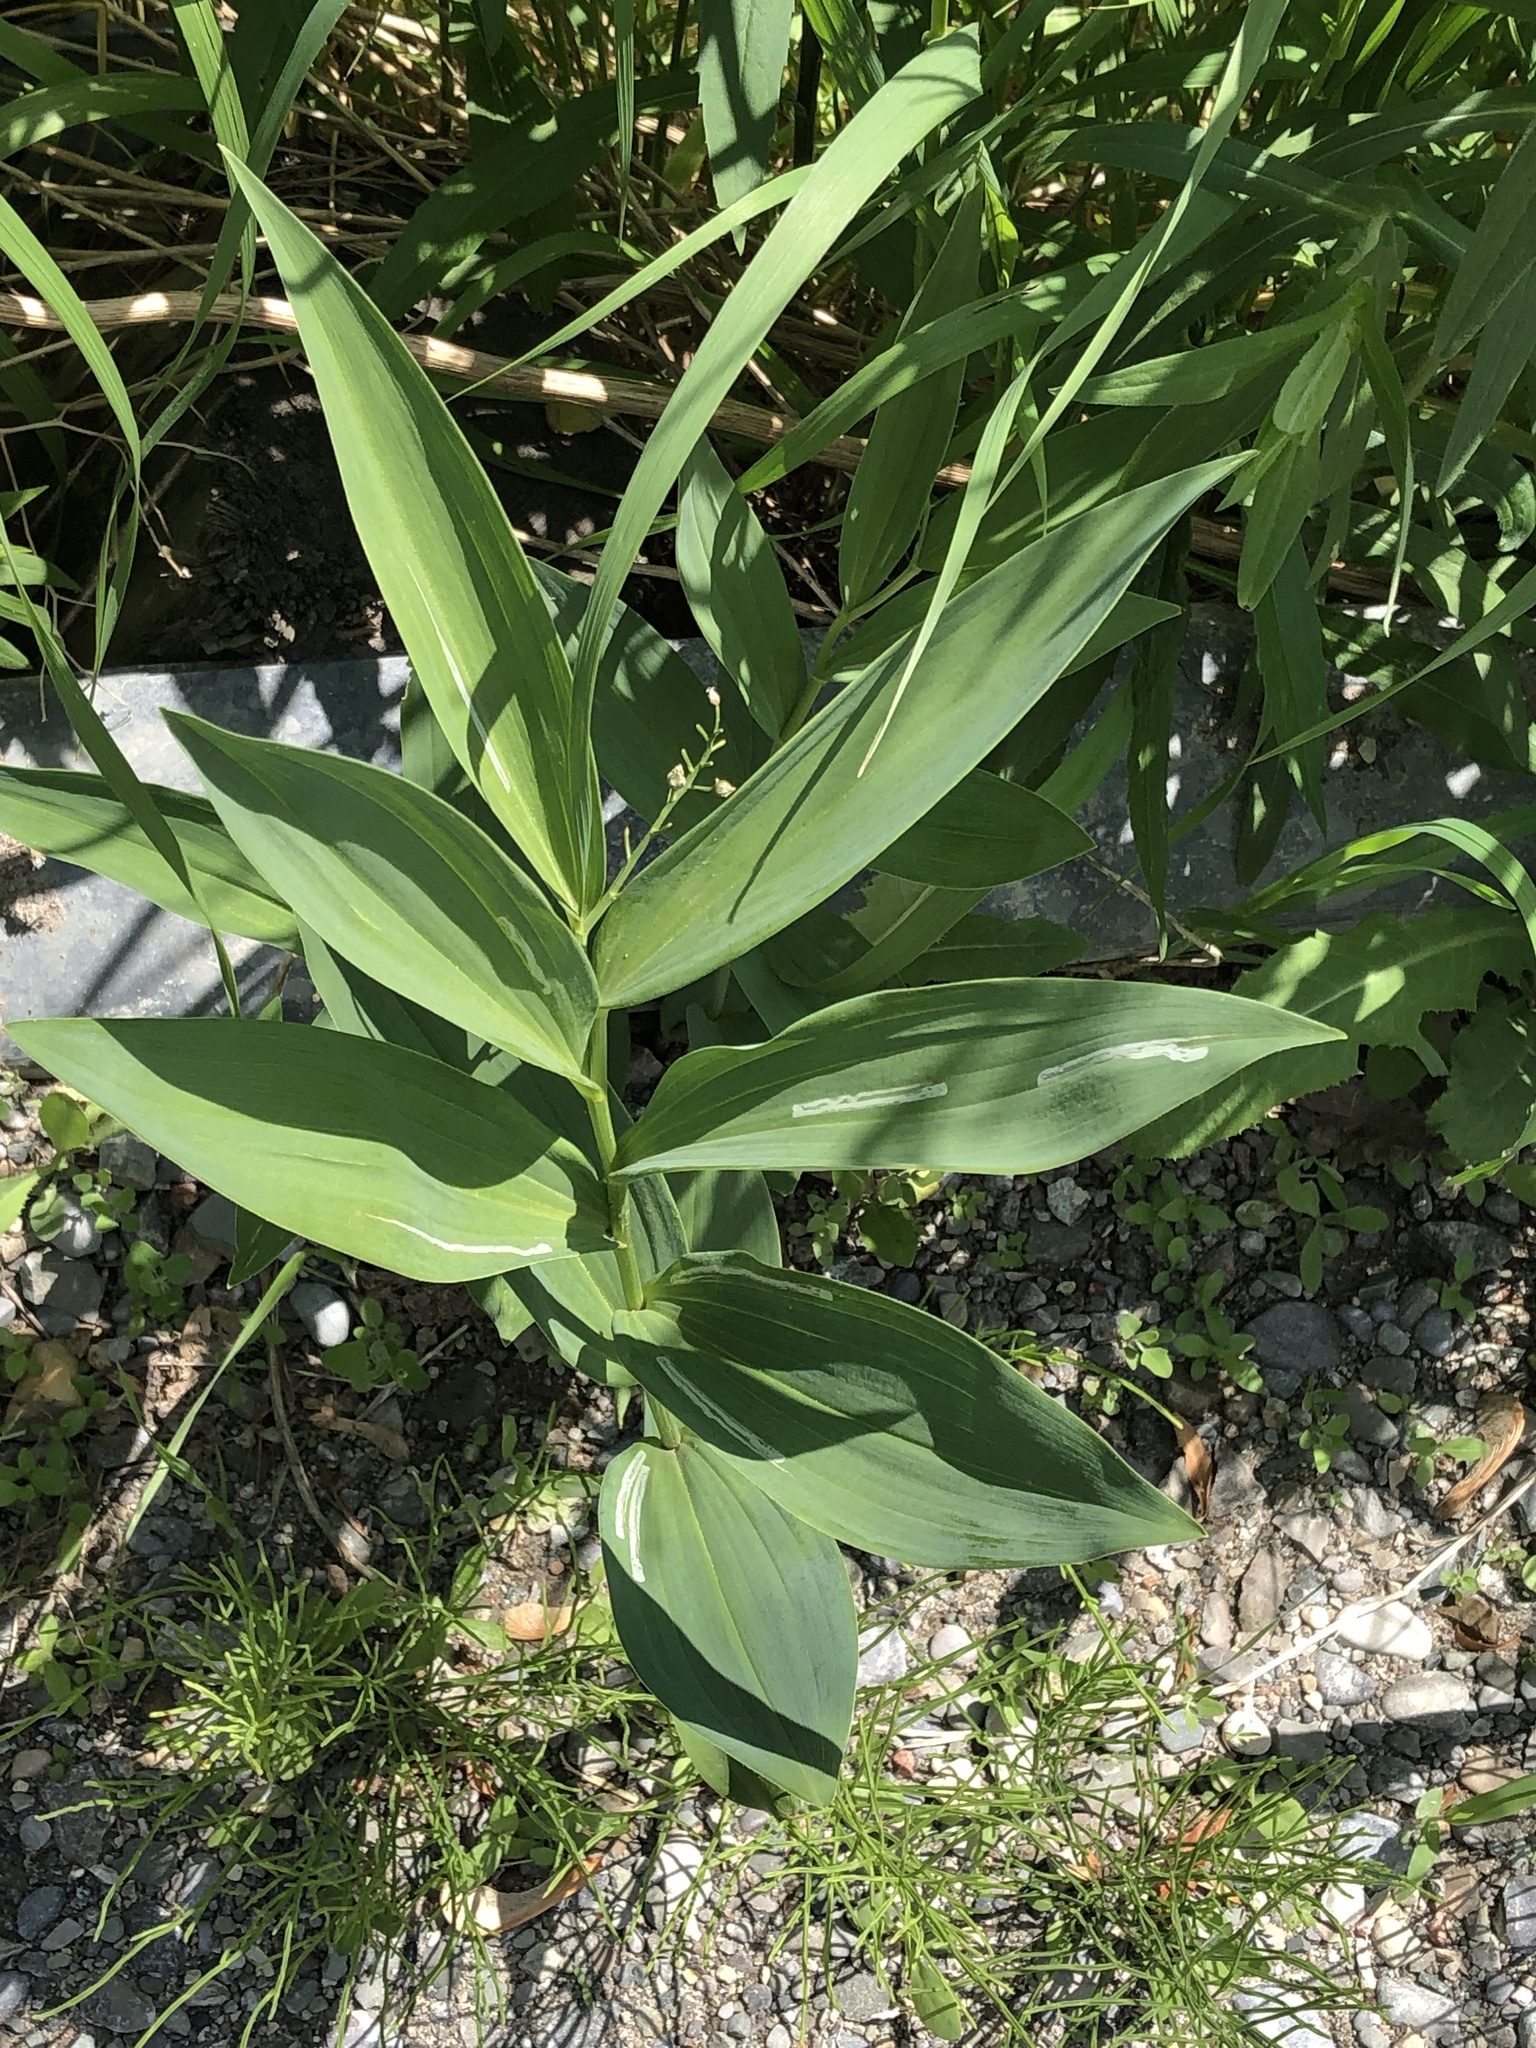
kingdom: Plantae
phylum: Tracheophyta
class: Liliopsida
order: Asparagales
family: Asparagaceae
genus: Maianthemum
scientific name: Maianthemum stellatum
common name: Little false solomon's seal
